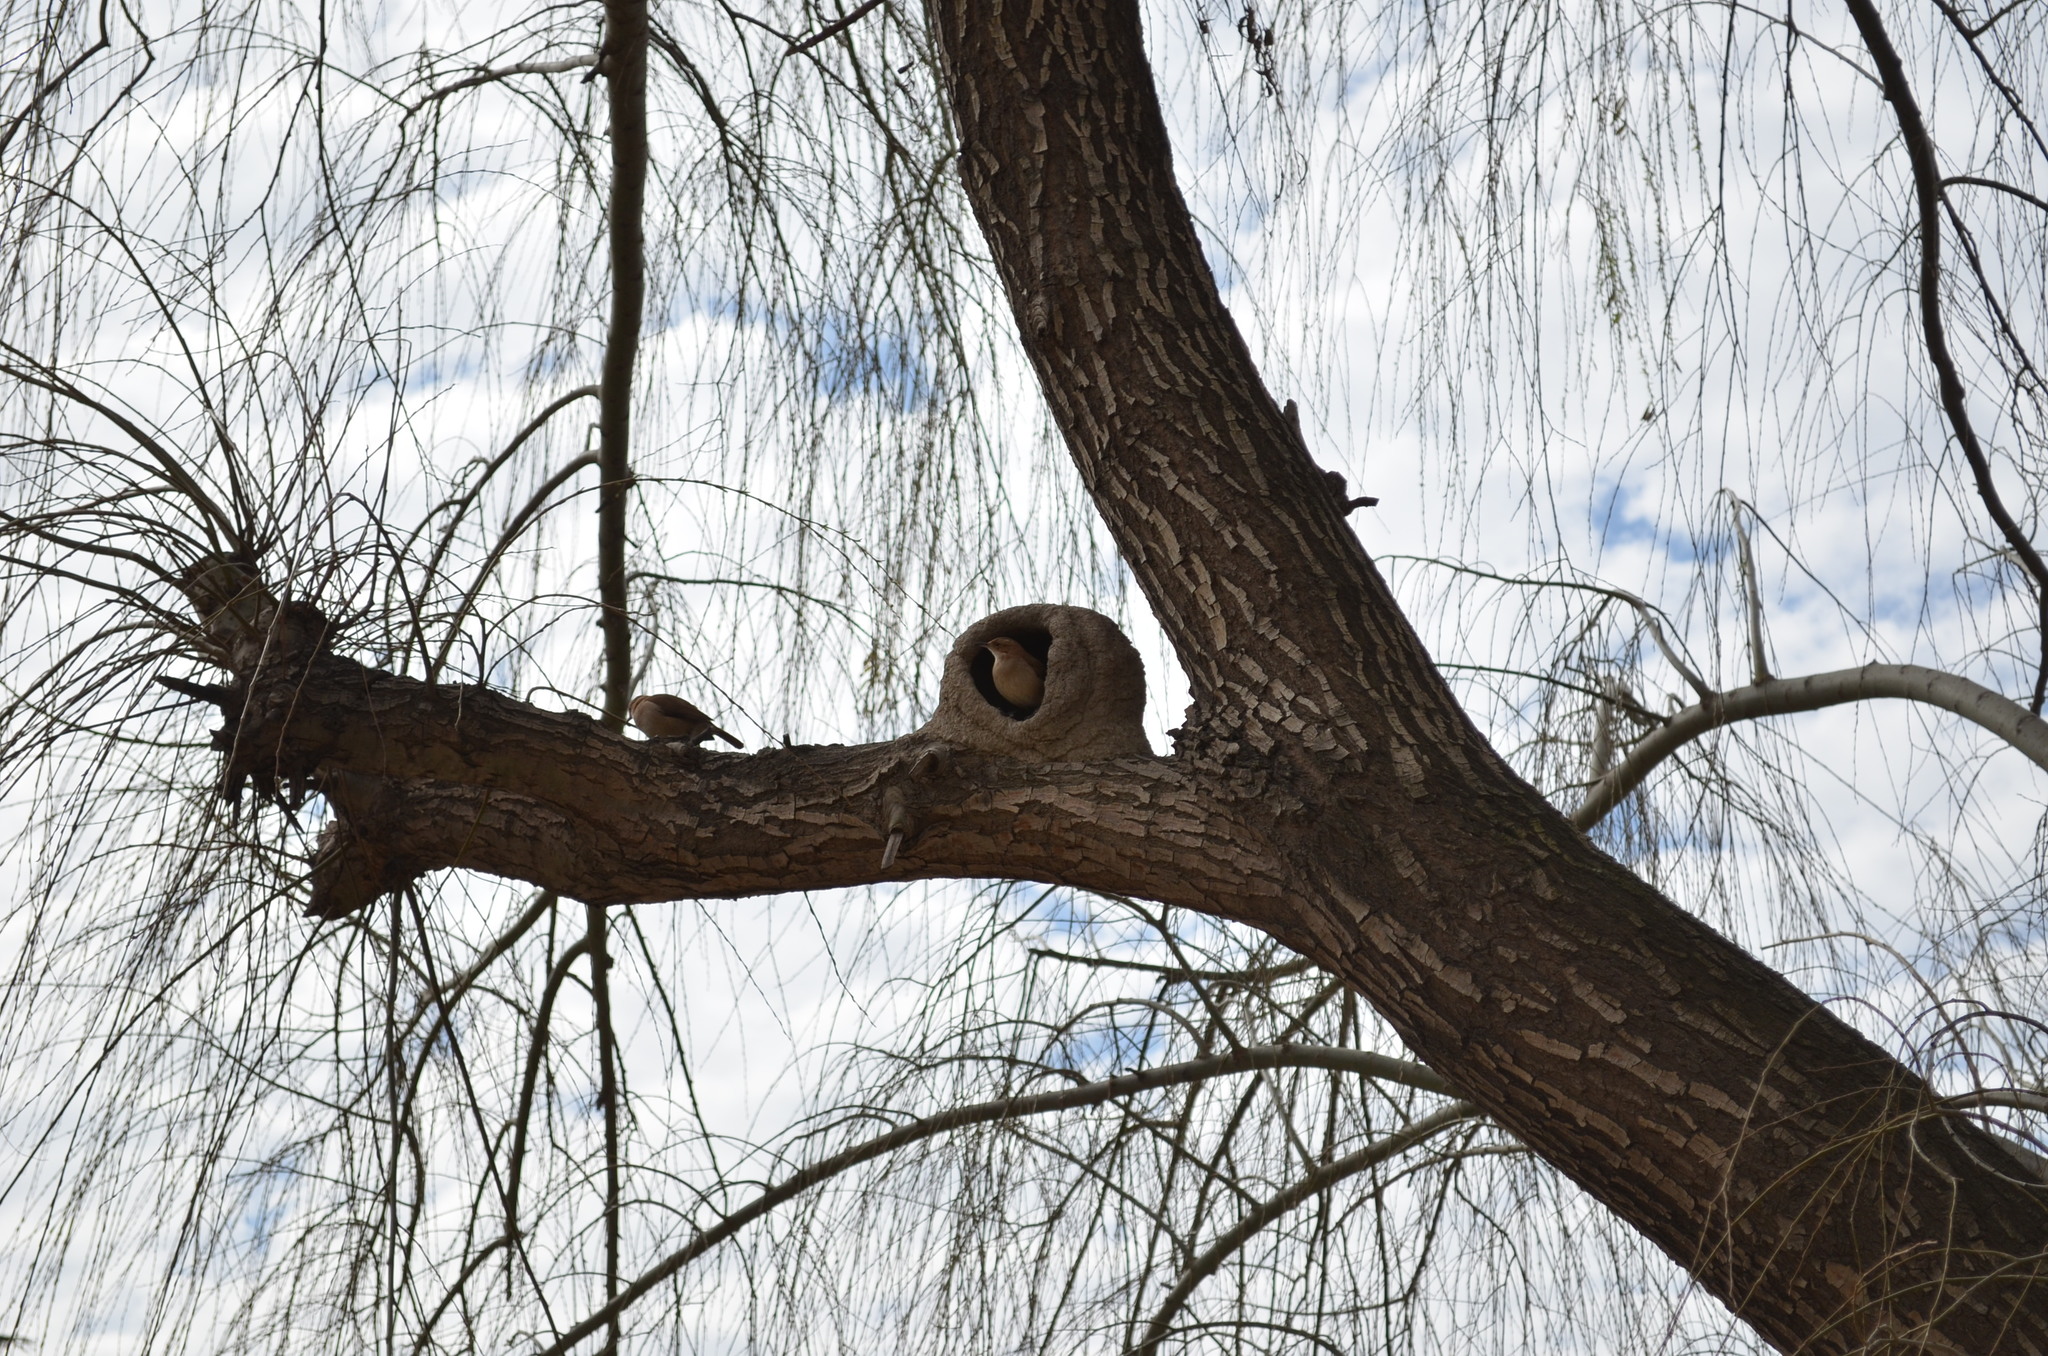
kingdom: Animalia
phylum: Chordata
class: Aves
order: Passeriformes
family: Furnariidae
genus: Furnarius
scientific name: Furnarius rufus
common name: Rufous hornero
